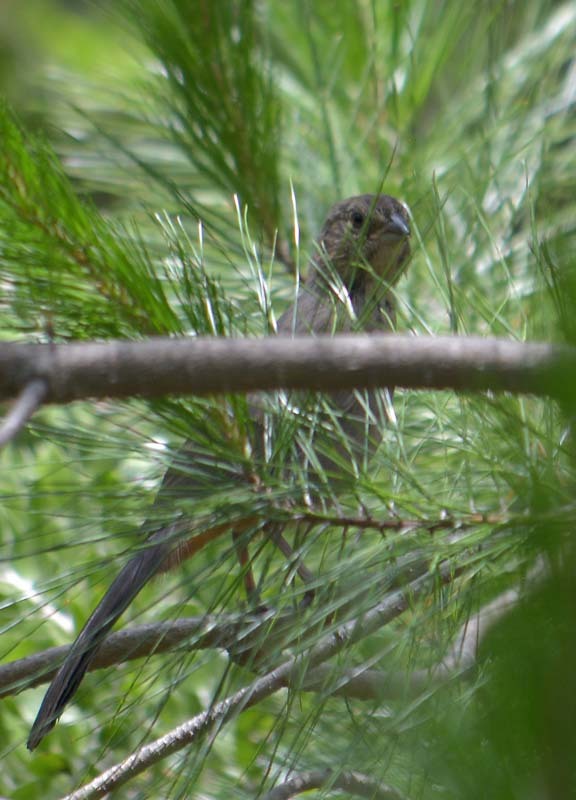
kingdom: Animalia
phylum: Chordata
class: Aves
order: Passeriformes
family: Passerellidae
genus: Melozone
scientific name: Melozone fusca
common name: Canyon towhee
